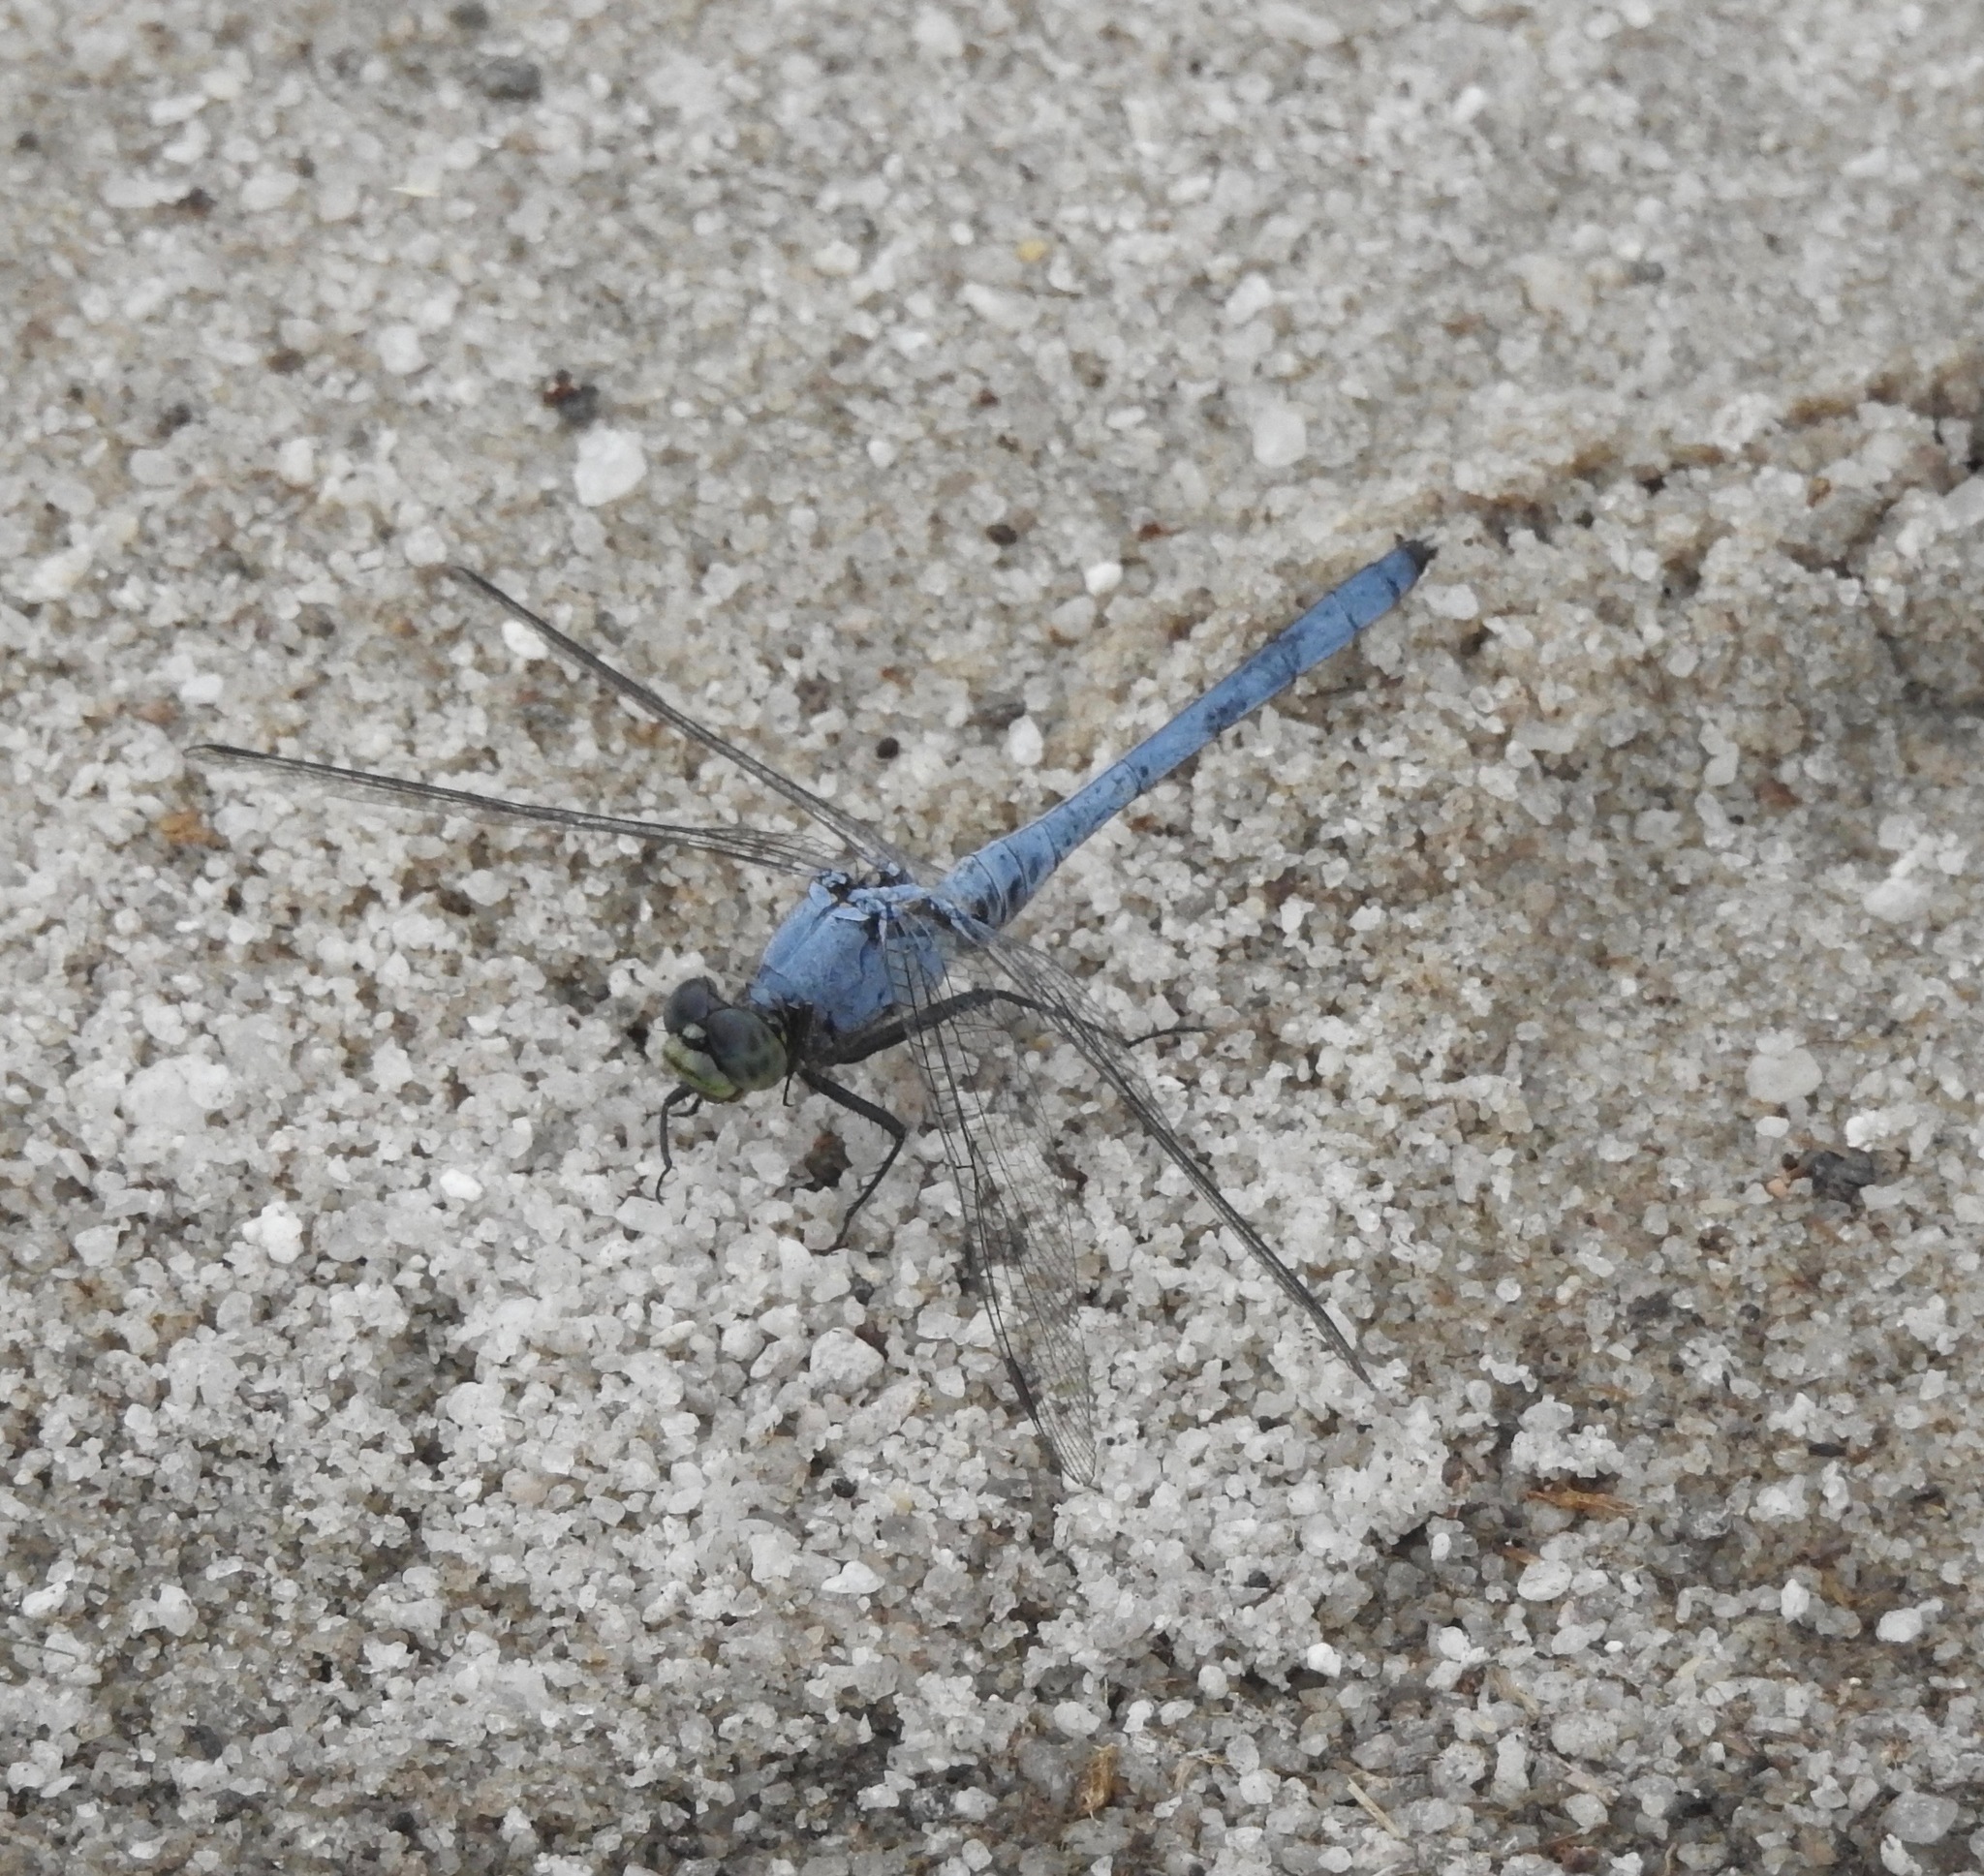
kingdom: Animalia
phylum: Arthropoda
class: Insecta
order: Odonata
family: Libellulidae
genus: Erythemis
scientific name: Erythemis simplicicollis
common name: Eastern pondhawk
